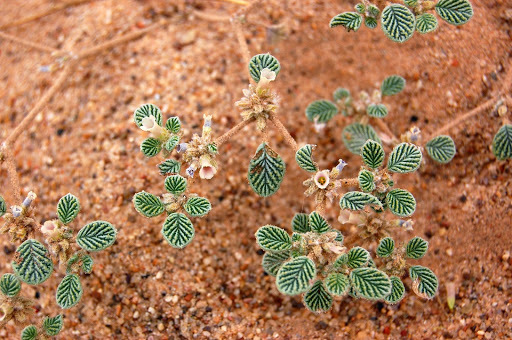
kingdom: Plantae
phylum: Tracheophyta
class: Magnoliopsida
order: Boraginales
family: Ehretiaceae
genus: Tiquilia
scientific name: Tiquilia plicata
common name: Fan-leaf tiquilia
